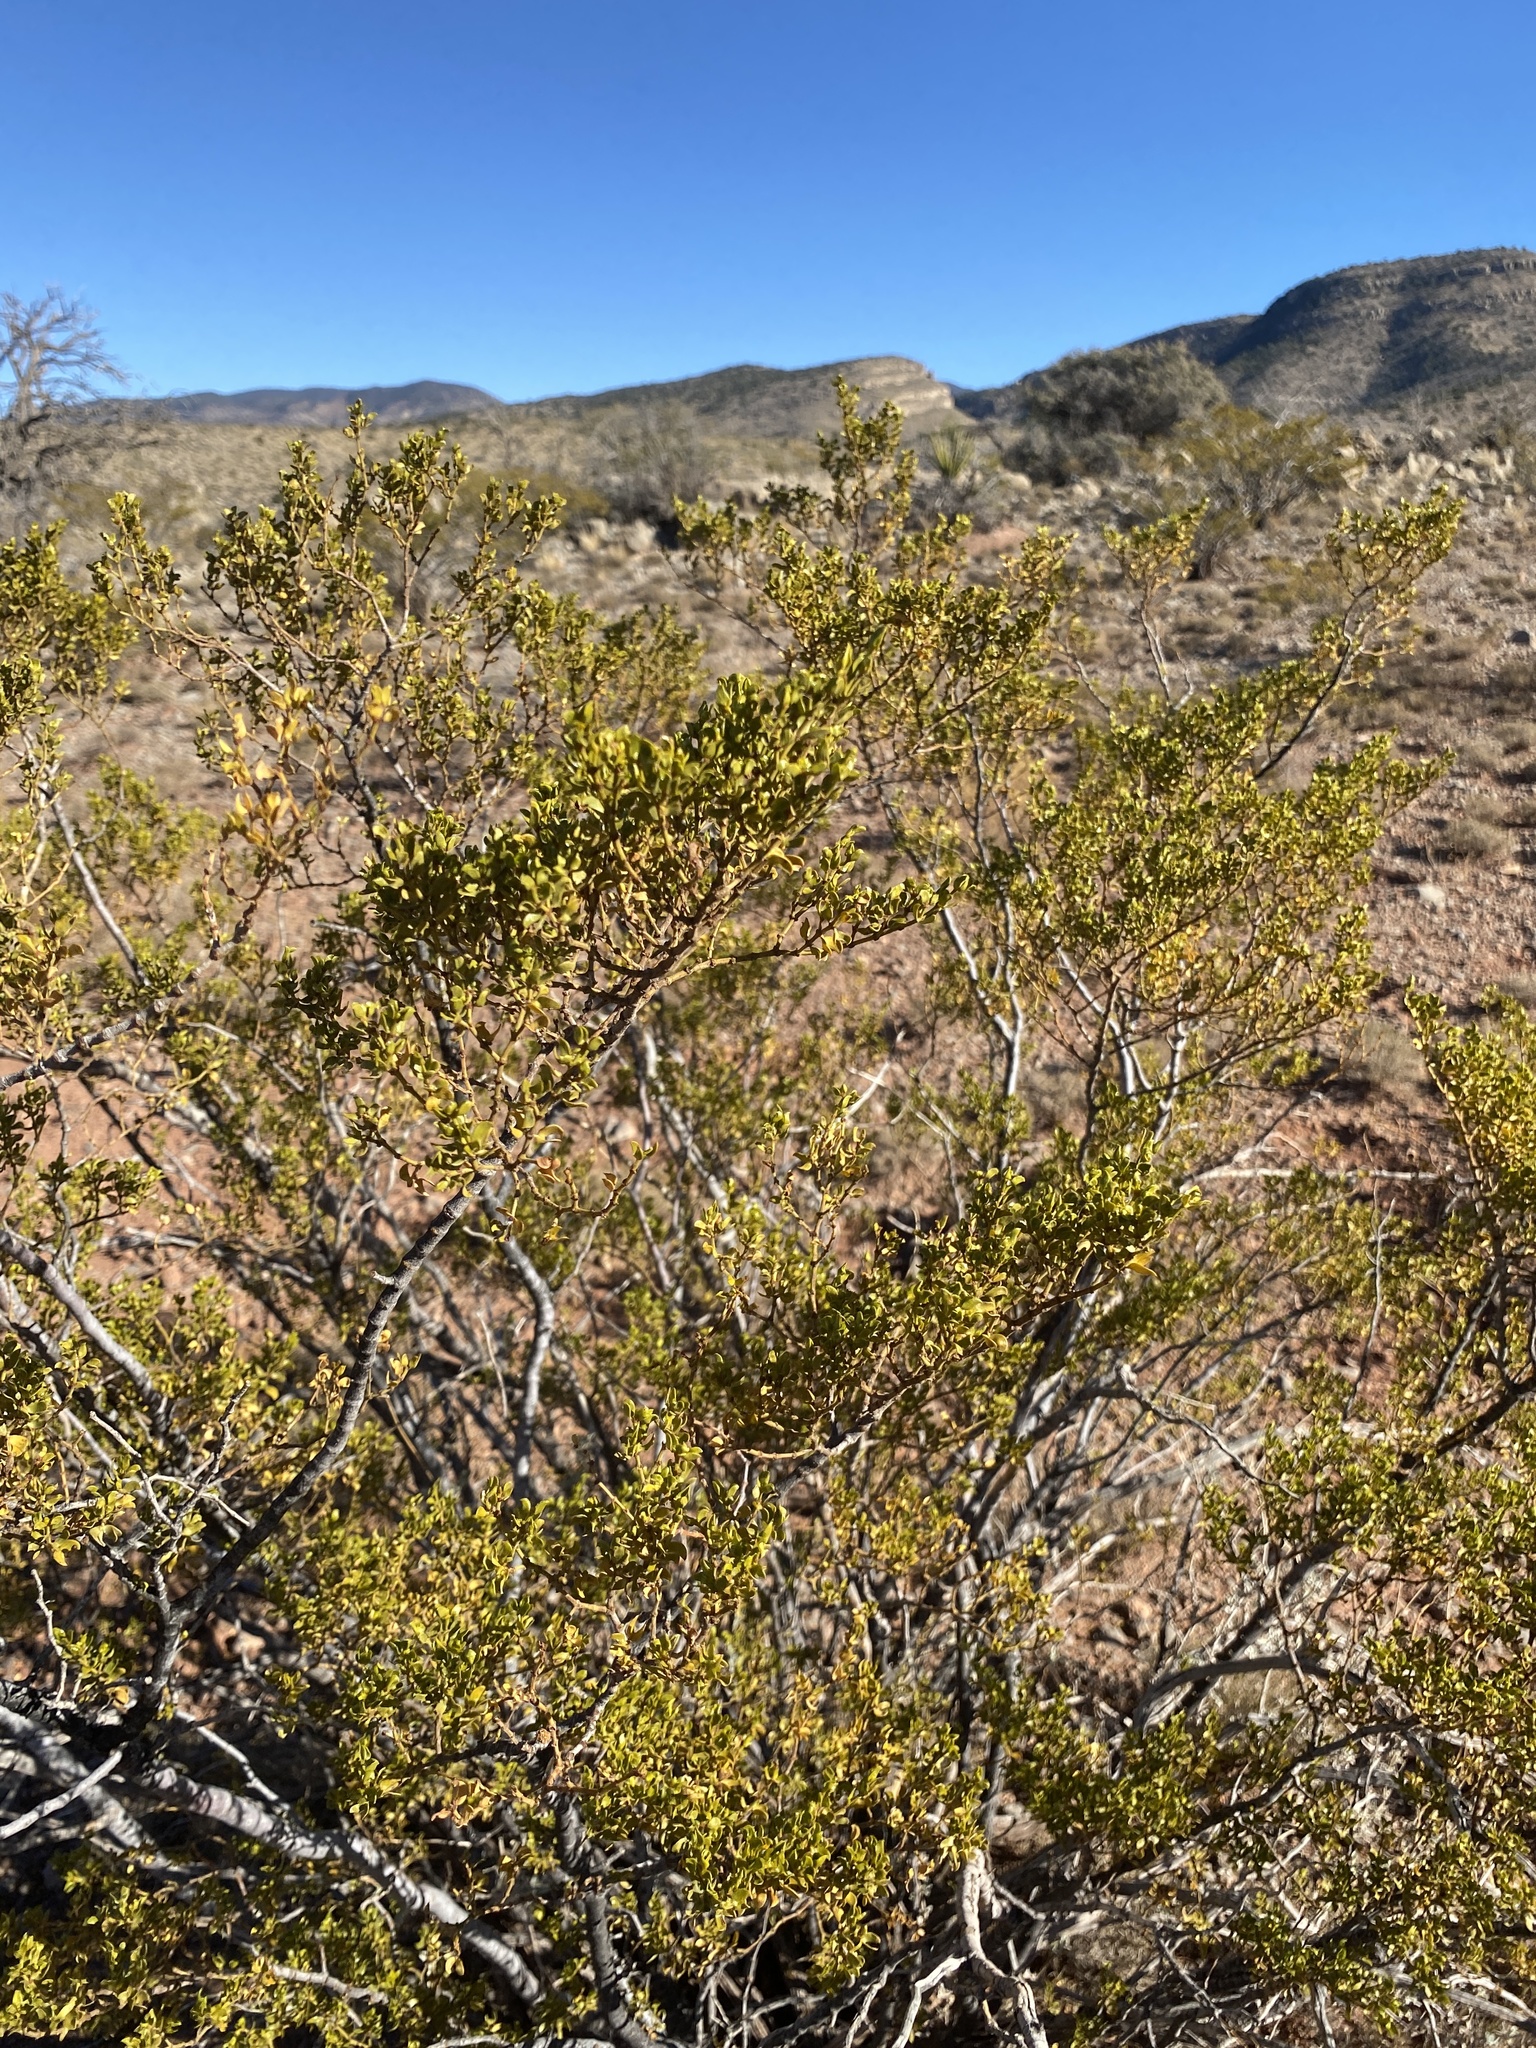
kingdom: Plantae
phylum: Tracheophyta
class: Magnoliopsida
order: Zygophyllales
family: Zygophyllaceae
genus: Larrea
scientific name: Larrea tridentata
